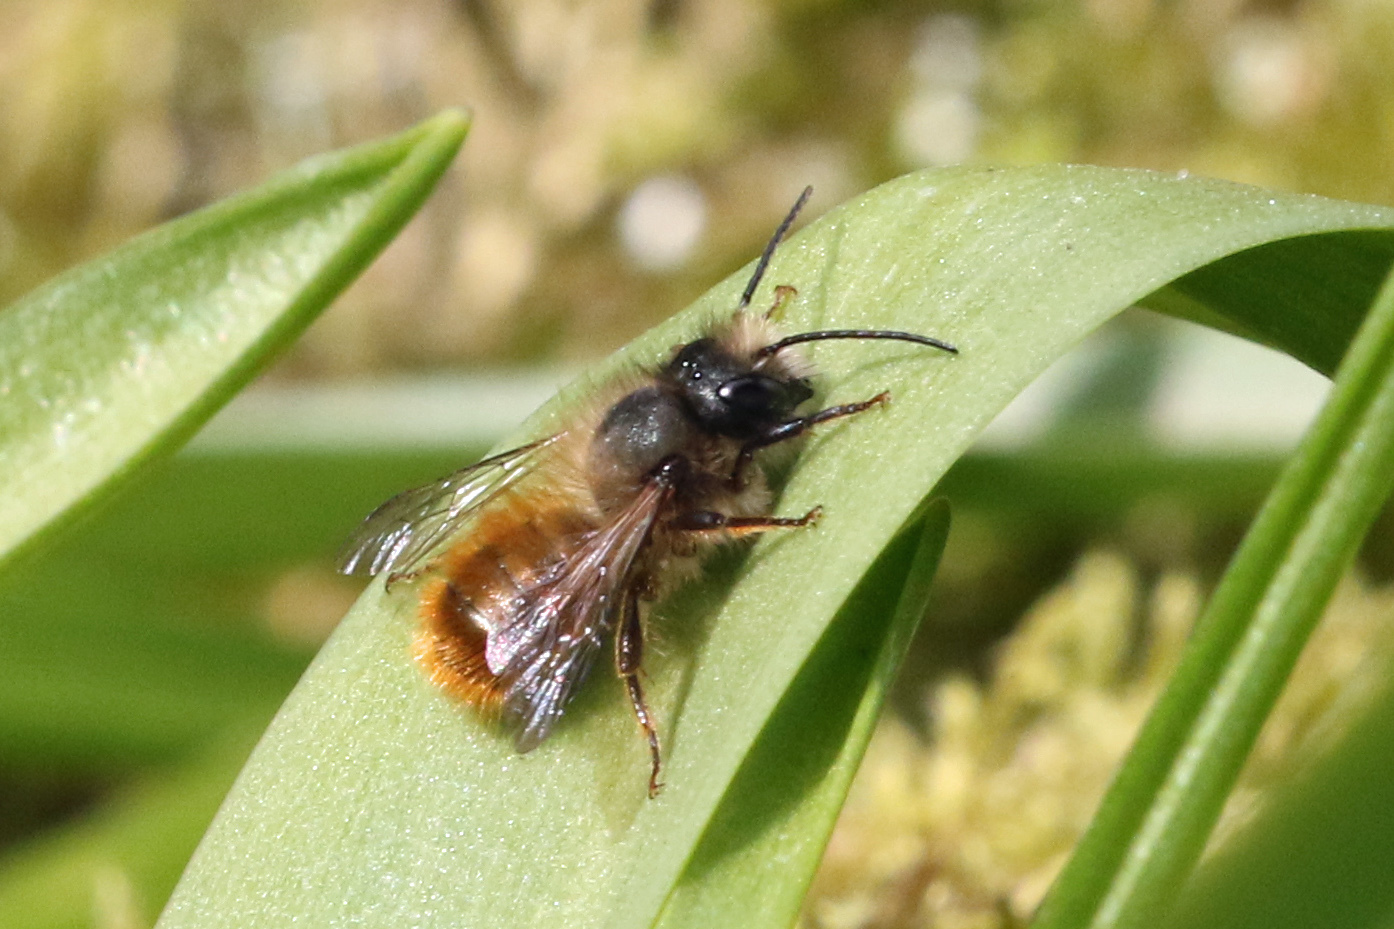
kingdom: Animalia
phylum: Arthropoda
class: Insecta
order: Hymenoptera
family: Megachilidae
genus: Osmia
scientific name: Osmia bicornis
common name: Red mason bee
